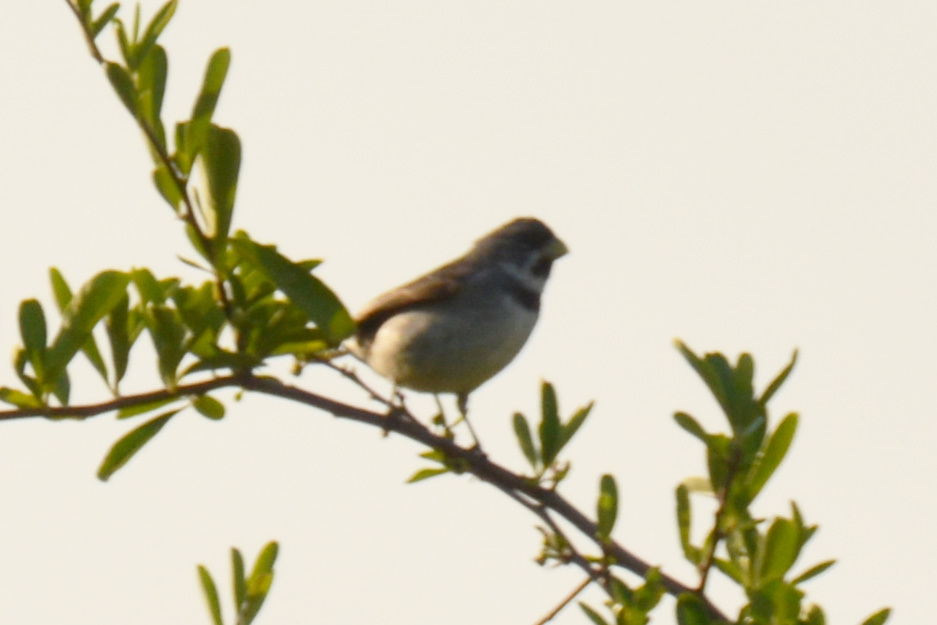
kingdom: Animalia
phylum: Chordata
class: Aves
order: Passeriformes
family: Thraupidae
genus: Sporophila
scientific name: Sporophila caerulescens
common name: Double-collared seedeater
